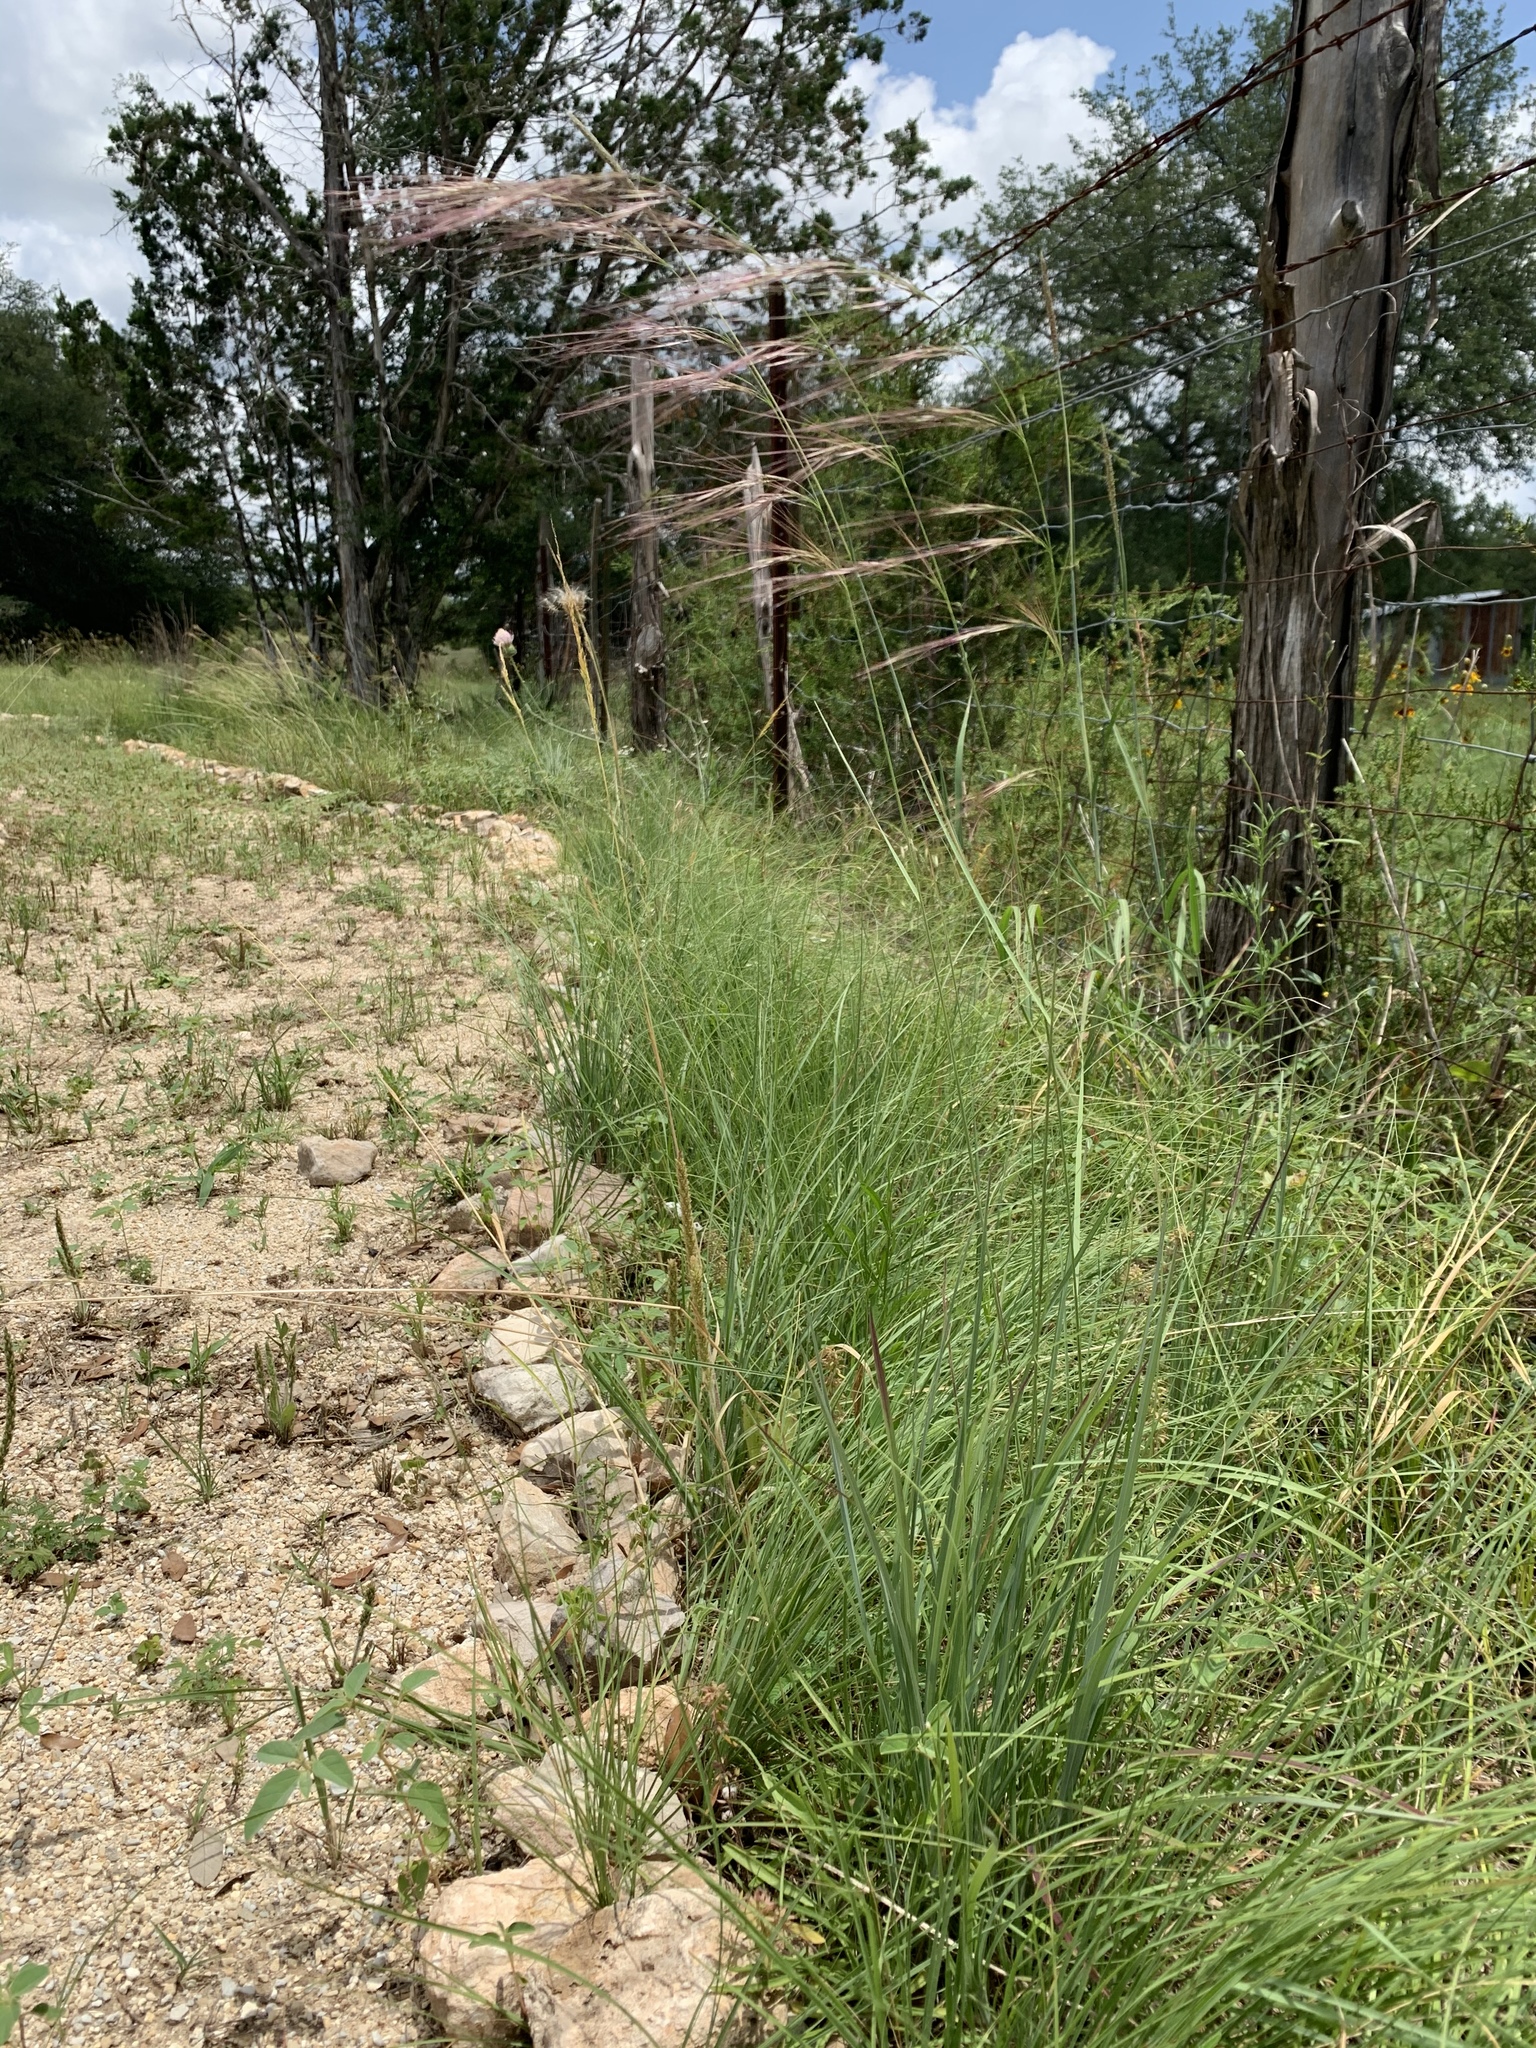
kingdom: Plantae
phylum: Tracheophyta
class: Liliopsida
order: Poales
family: Poaceae
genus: Aristida
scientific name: Aristida purpurea
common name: Purple threeawn
